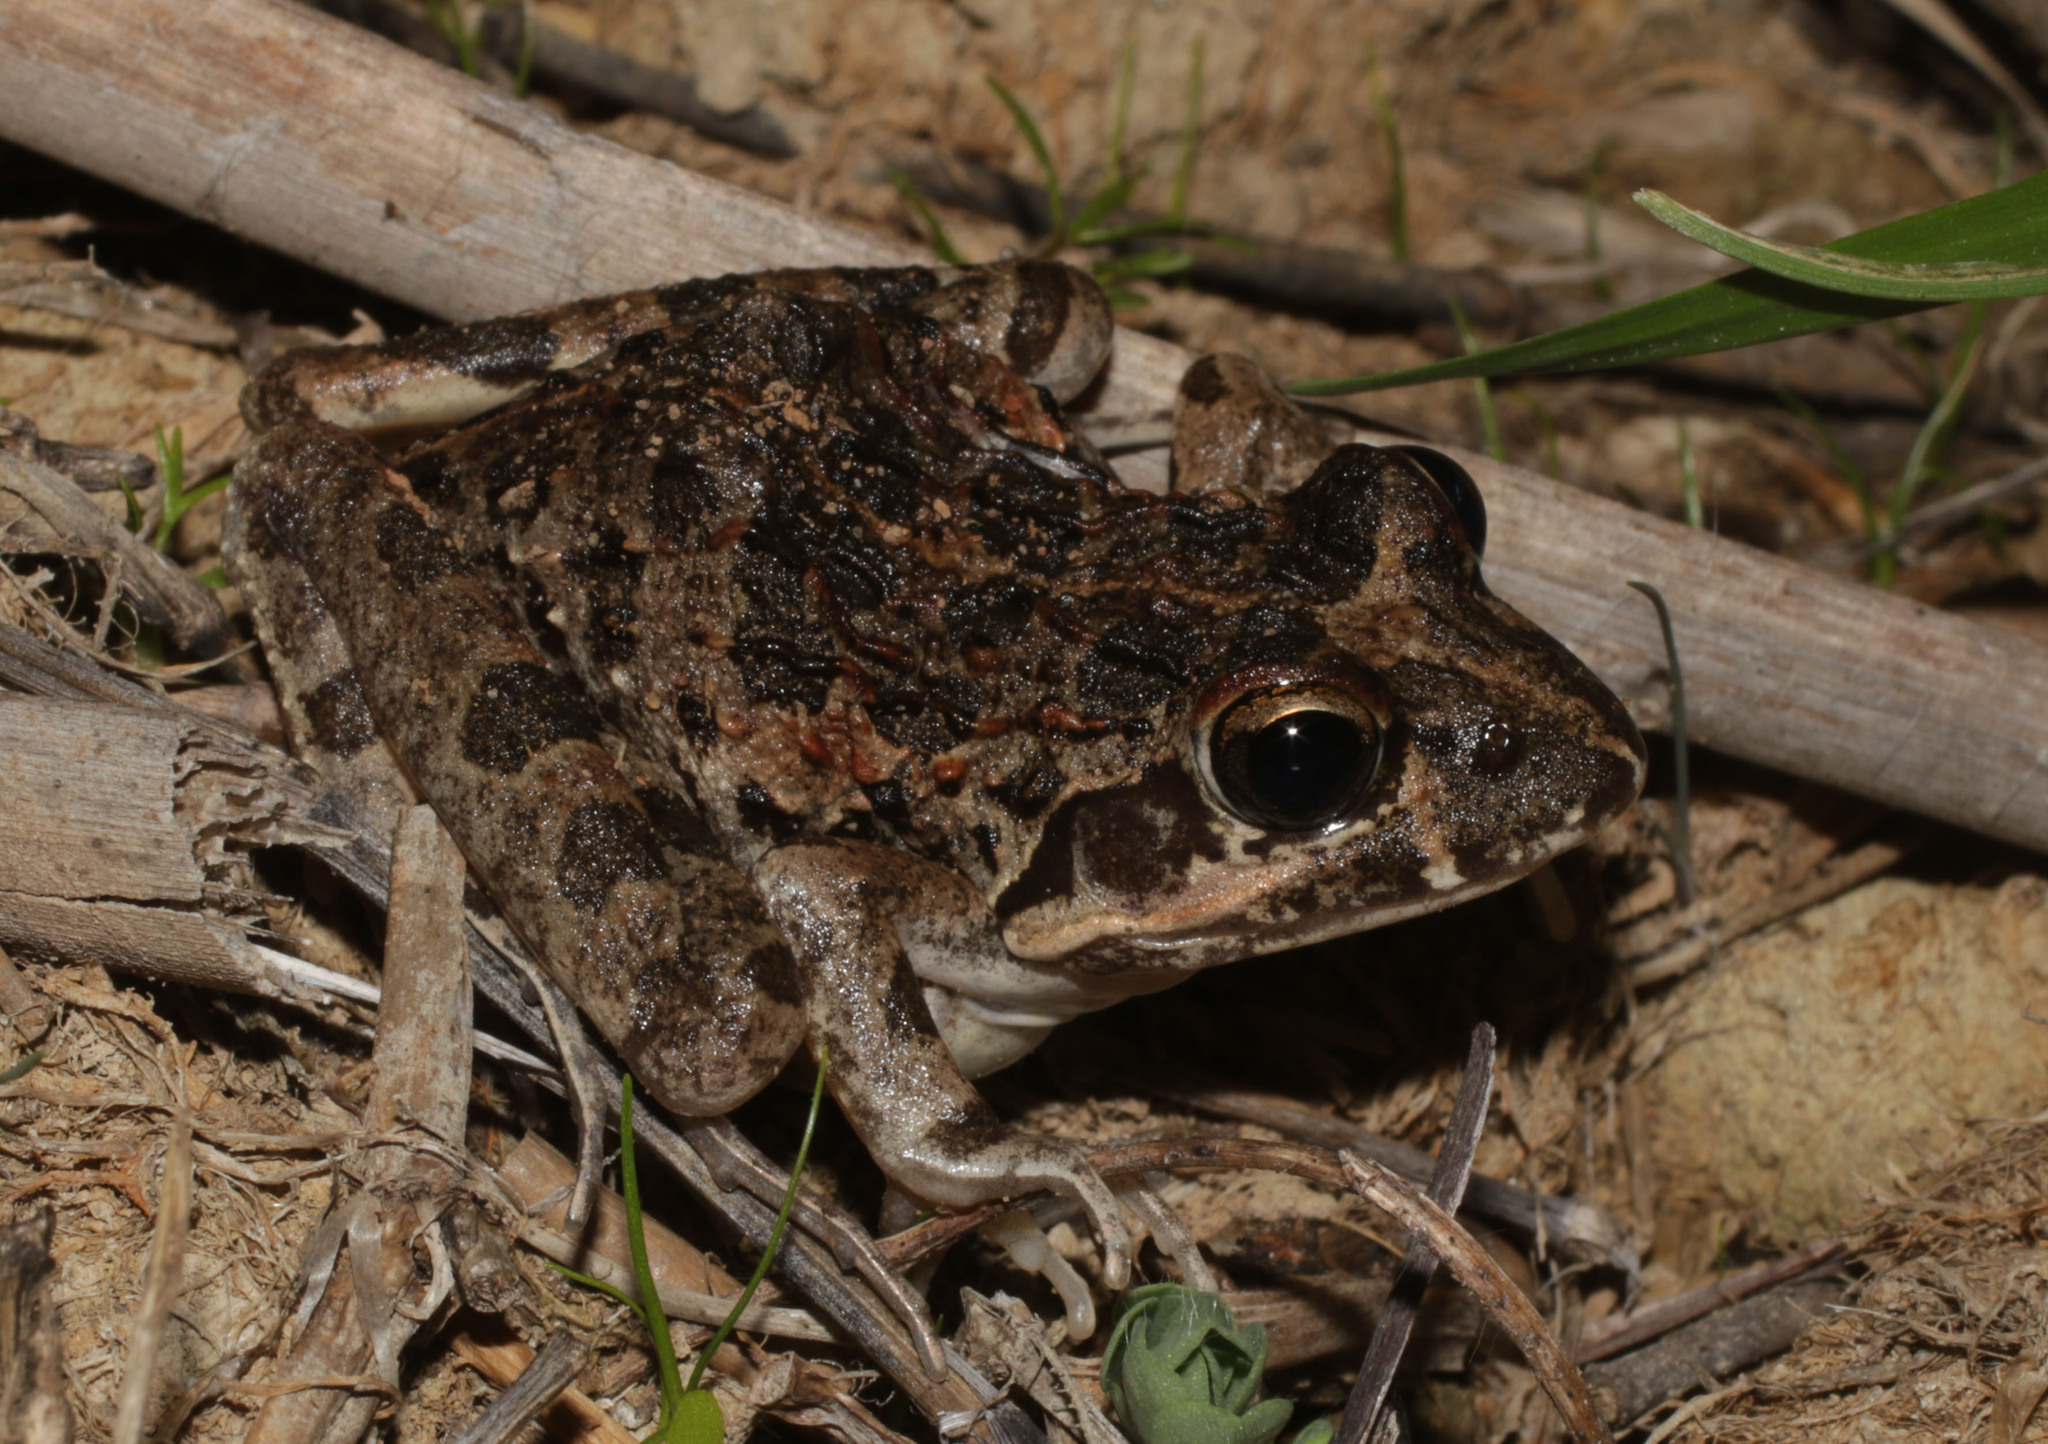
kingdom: Animalia
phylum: Chordata
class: Amphibia
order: Anura
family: Pyxicephalidae
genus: Strongylopus
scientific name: Strongylopus grayii
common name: Gray's stream frog
